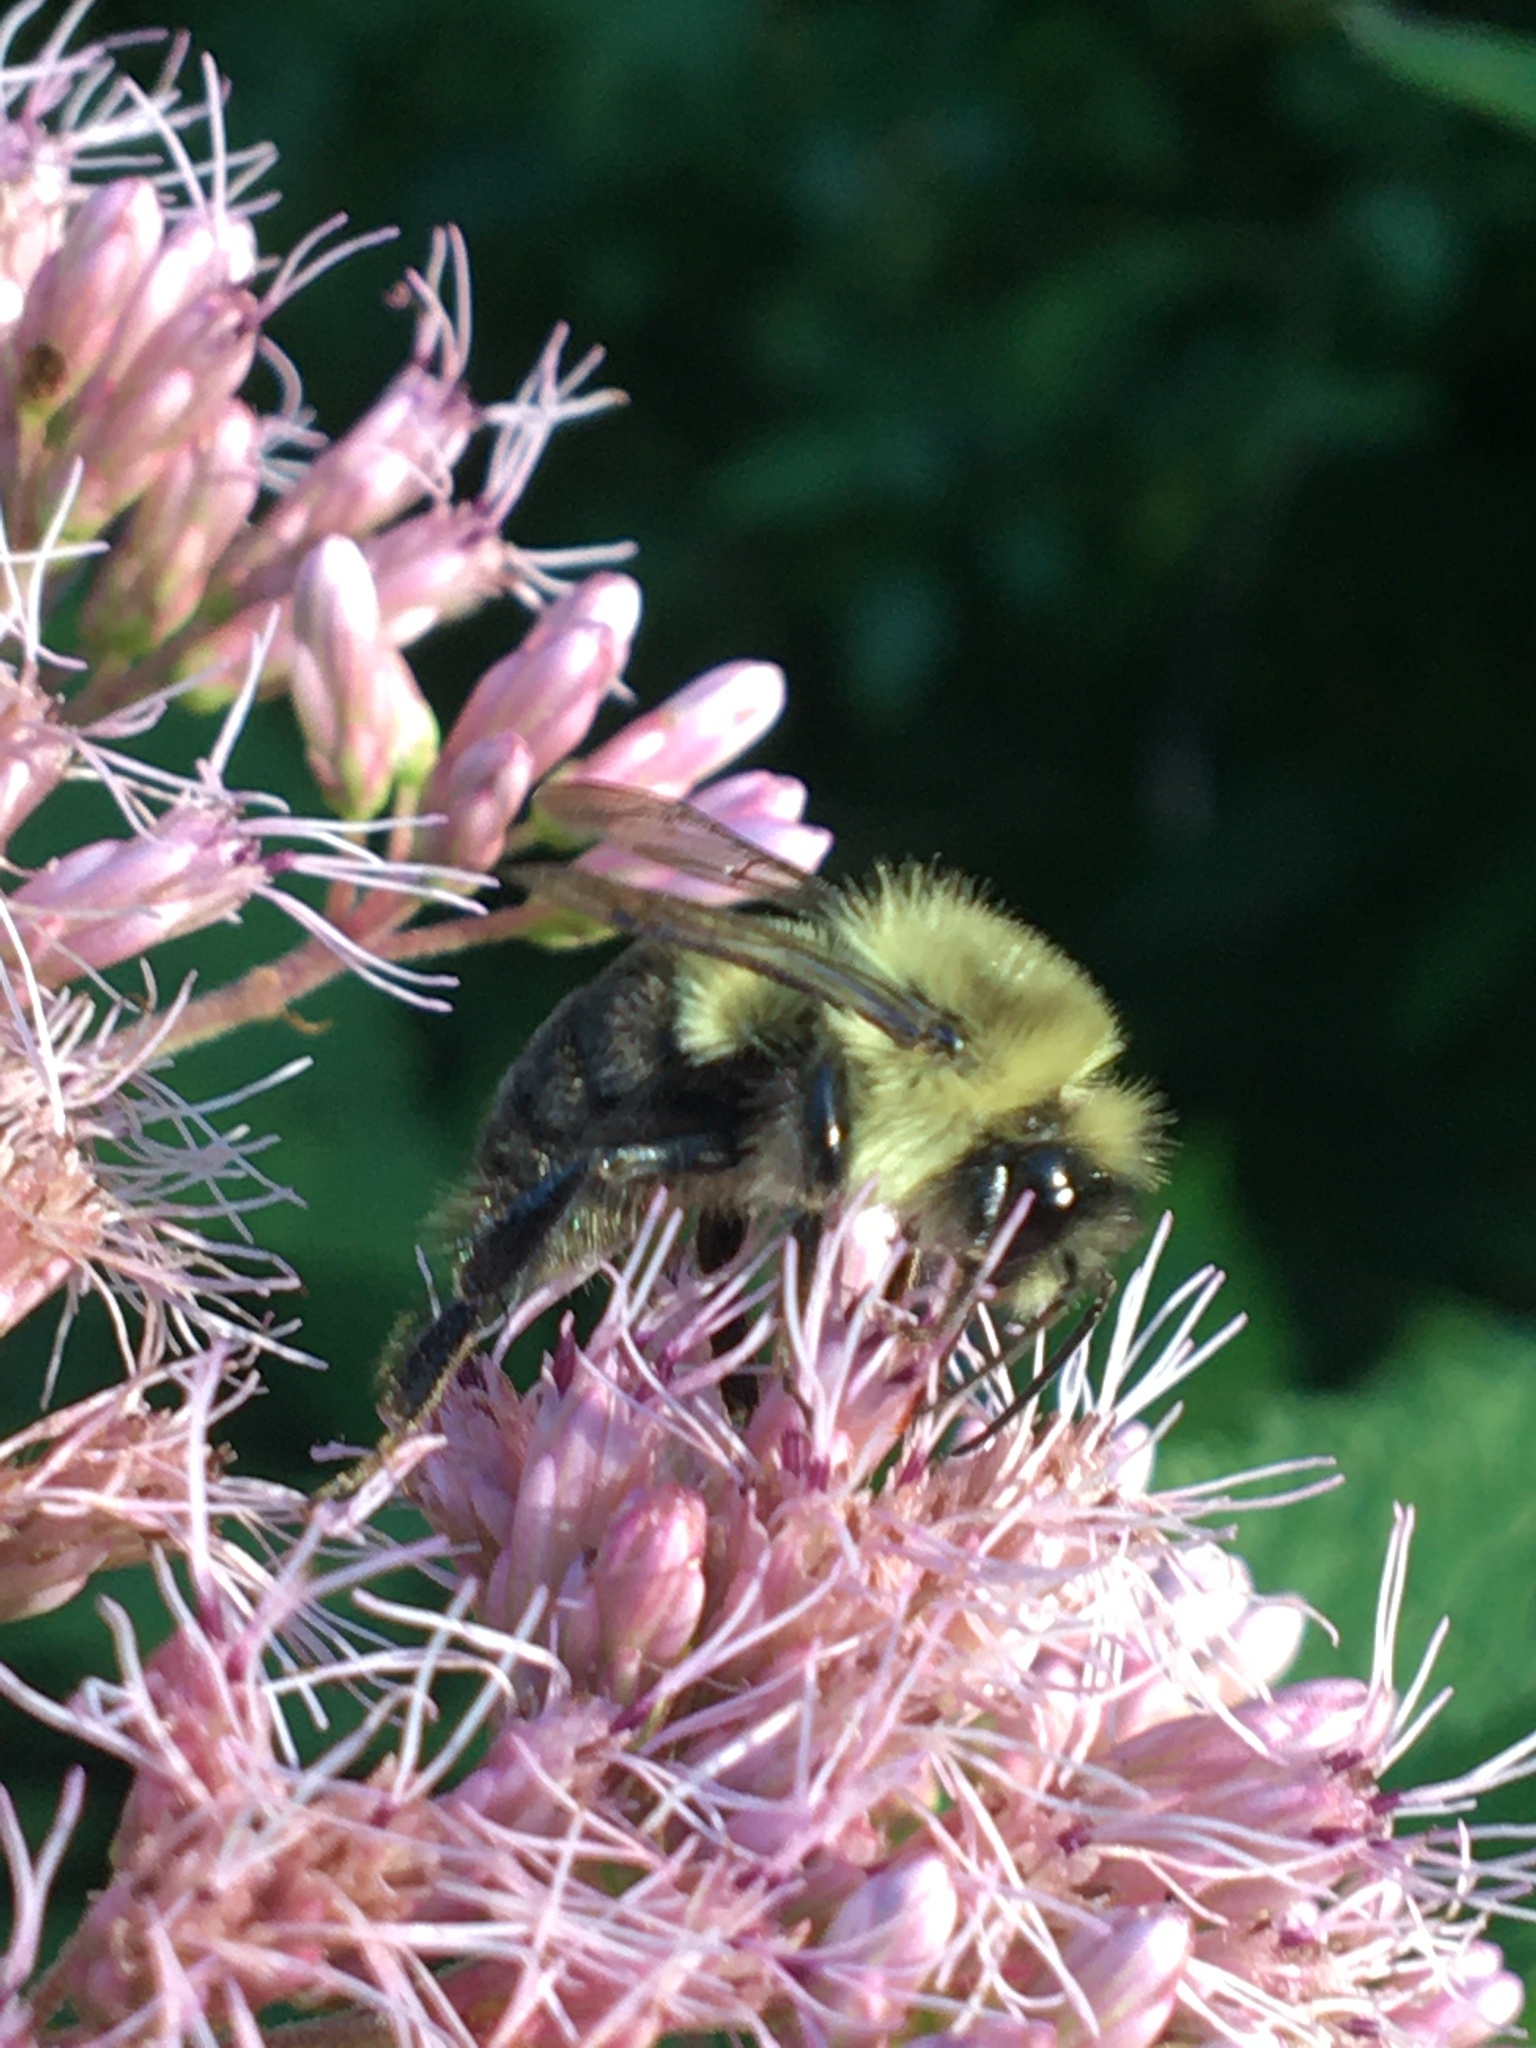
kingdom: Animalia
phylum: Arthropoda
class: Insecta
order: Hymenoptera
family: Apidae
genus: Bombus
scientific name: Bombus impatiens
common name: Common eastern bumble bee
